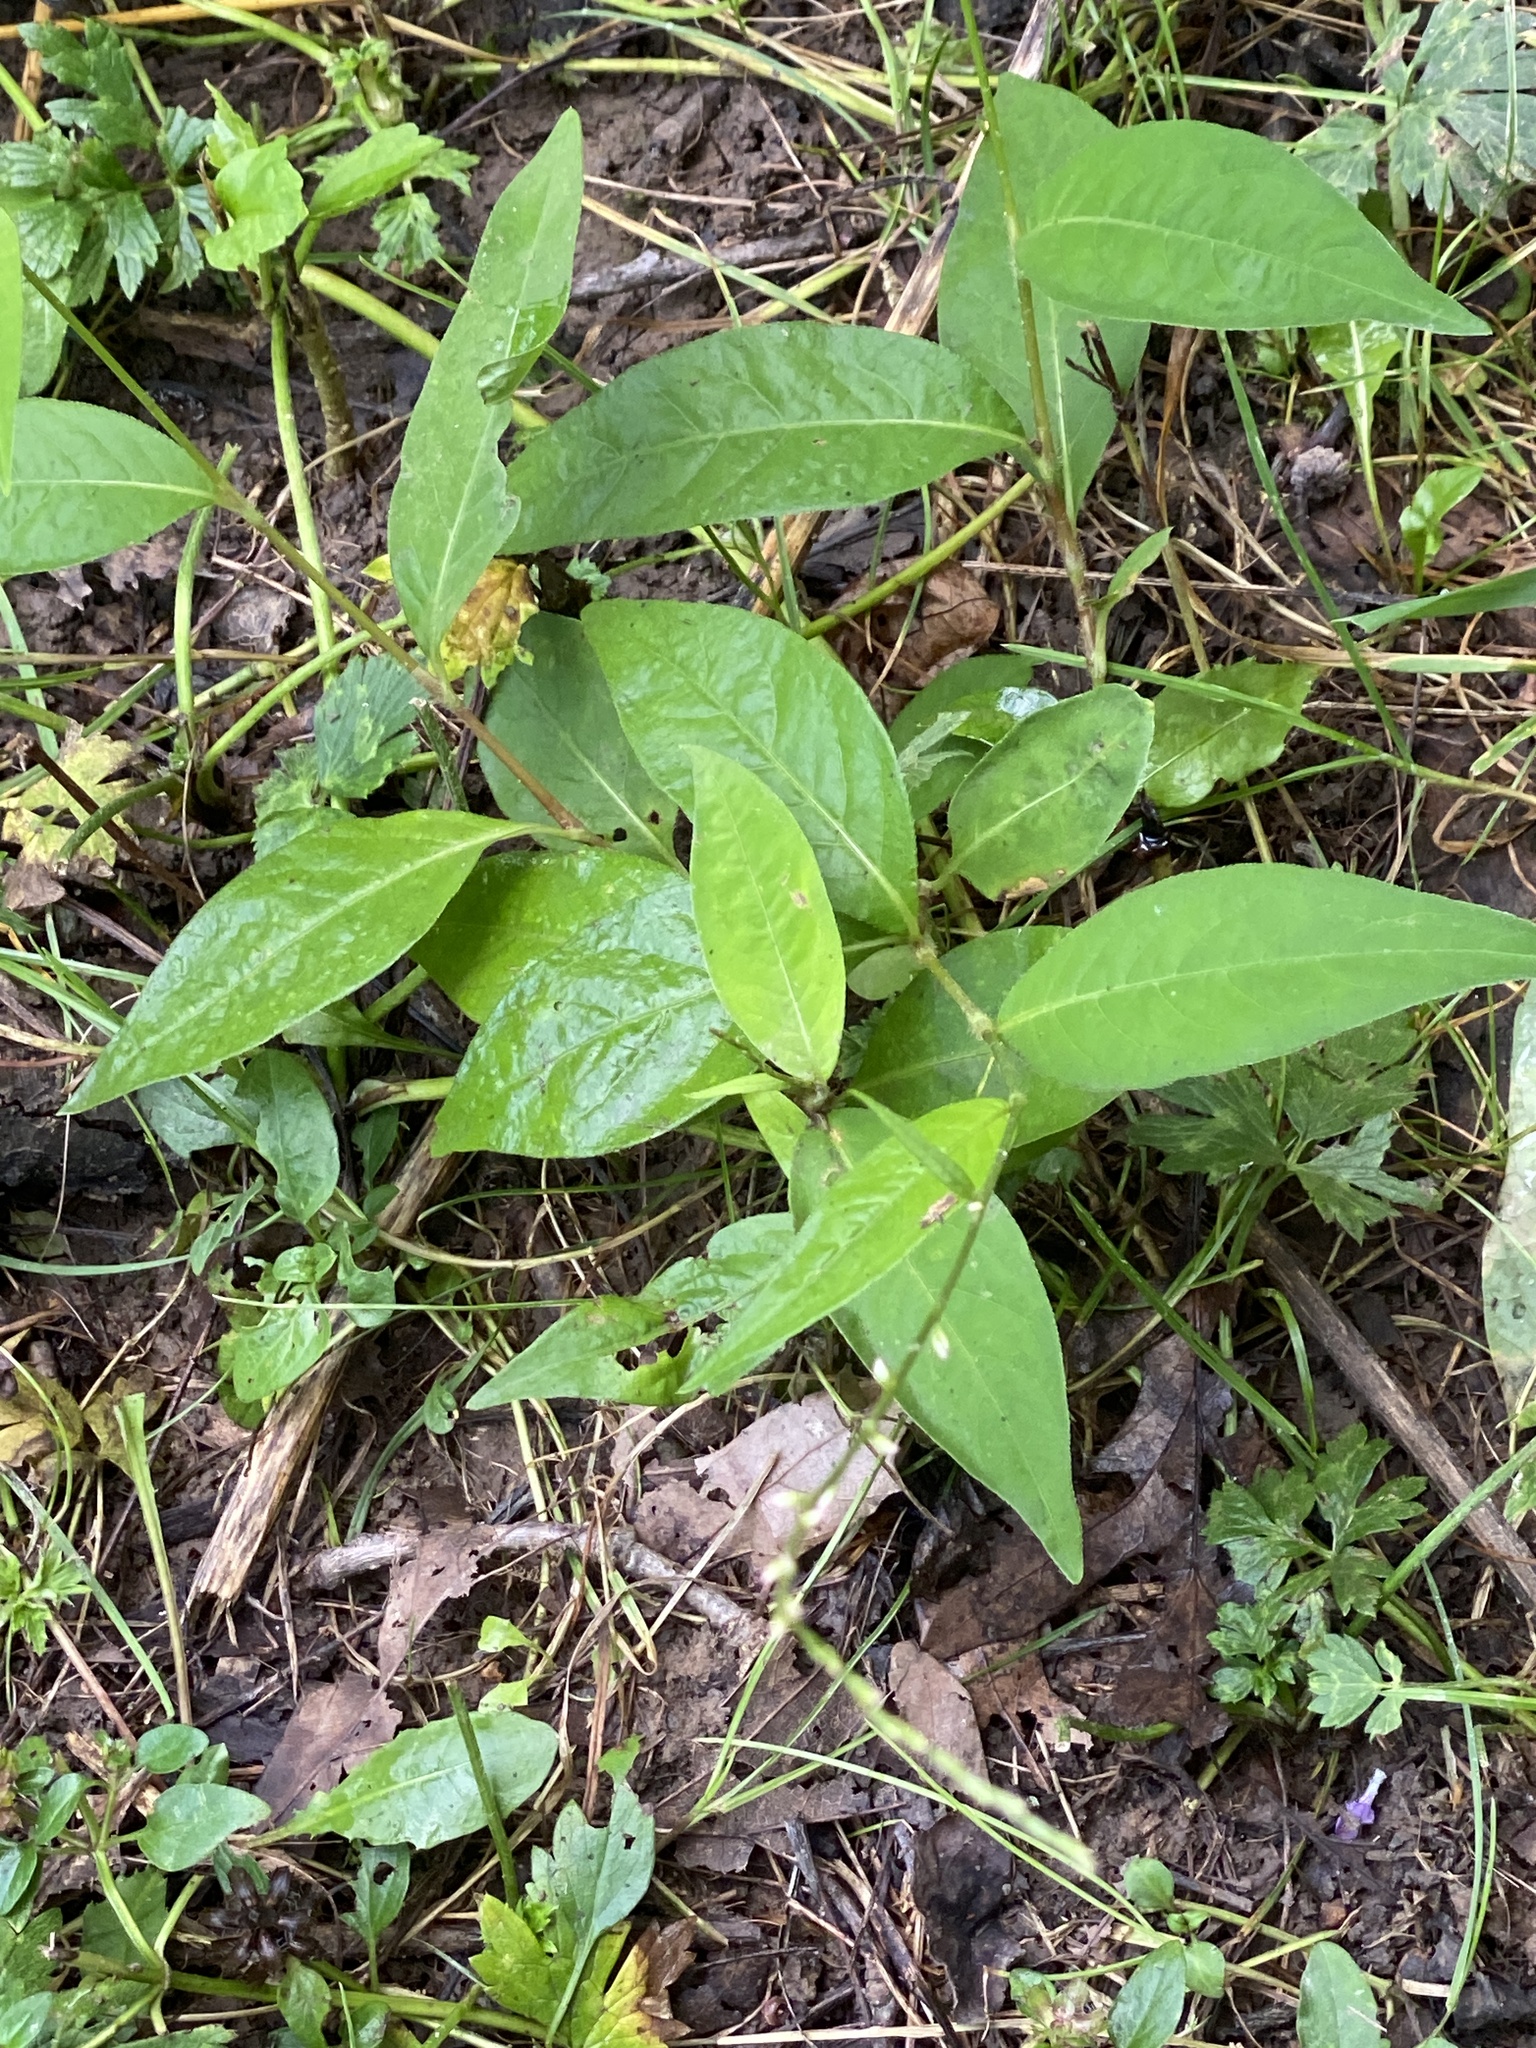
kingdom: Plantae
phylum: Tracheophyta
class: Magnoliopsida
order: Caryophyllales
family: Polygonaceae
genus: Persicaria
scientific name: Persicaria virginiana
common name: Jumpseed
